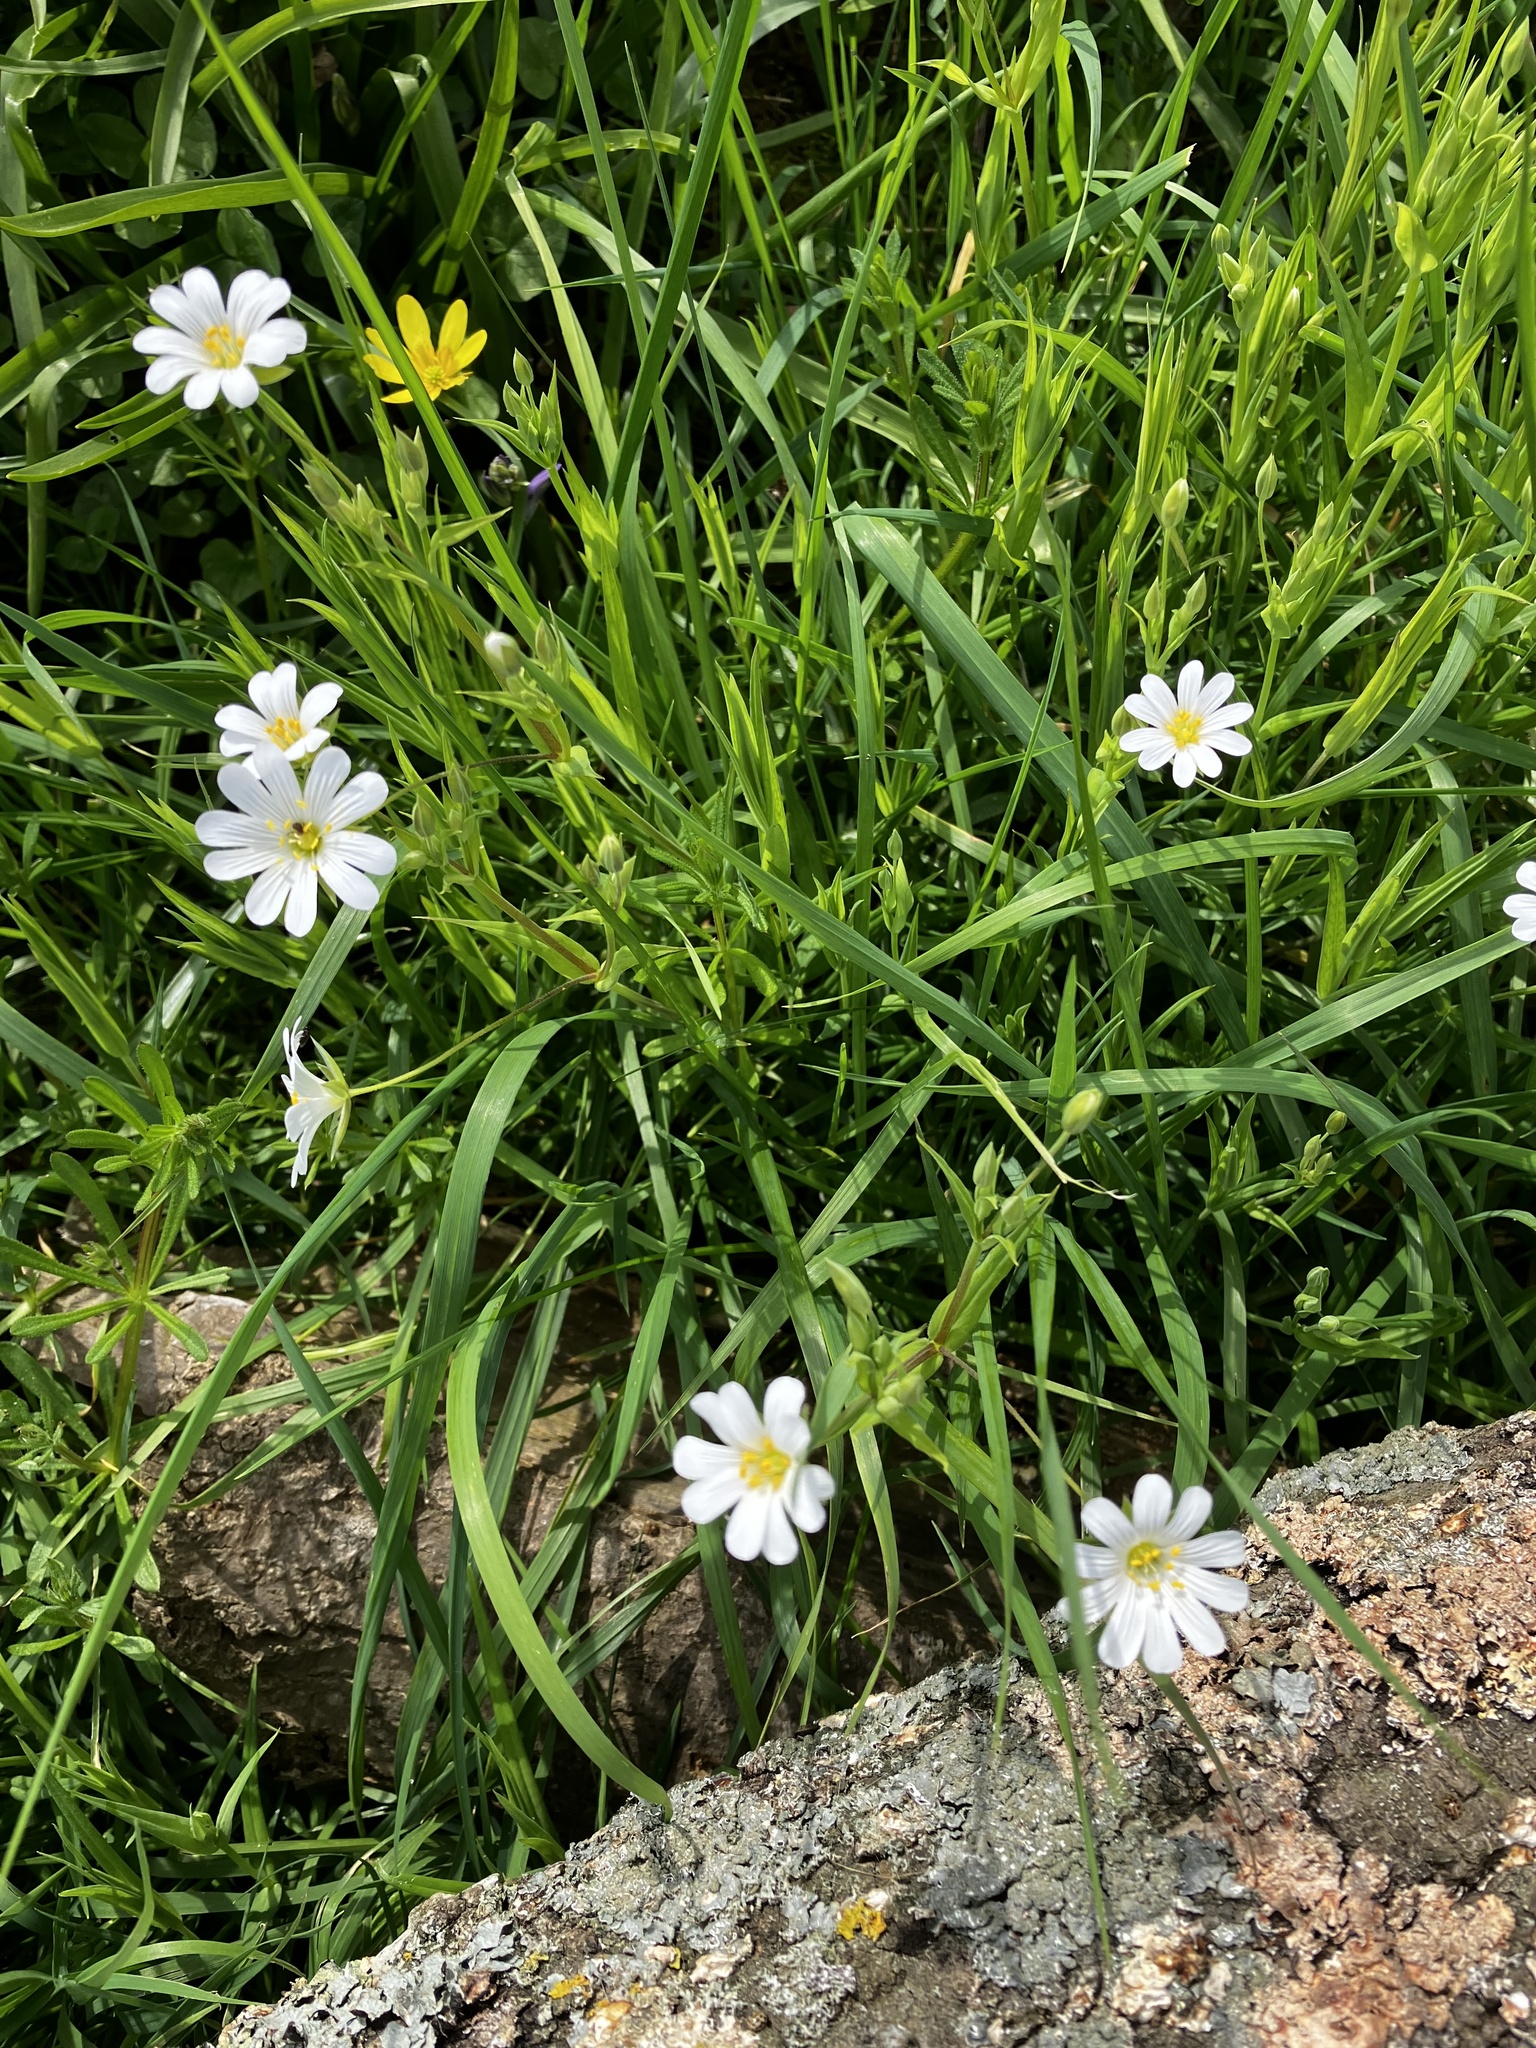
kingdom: Plantae
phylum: Tracheophyta
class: Magnoliopsida
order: Caryophyllales
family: Caryophyllaceae
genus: Rabelera
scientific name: Rabelera holostea
